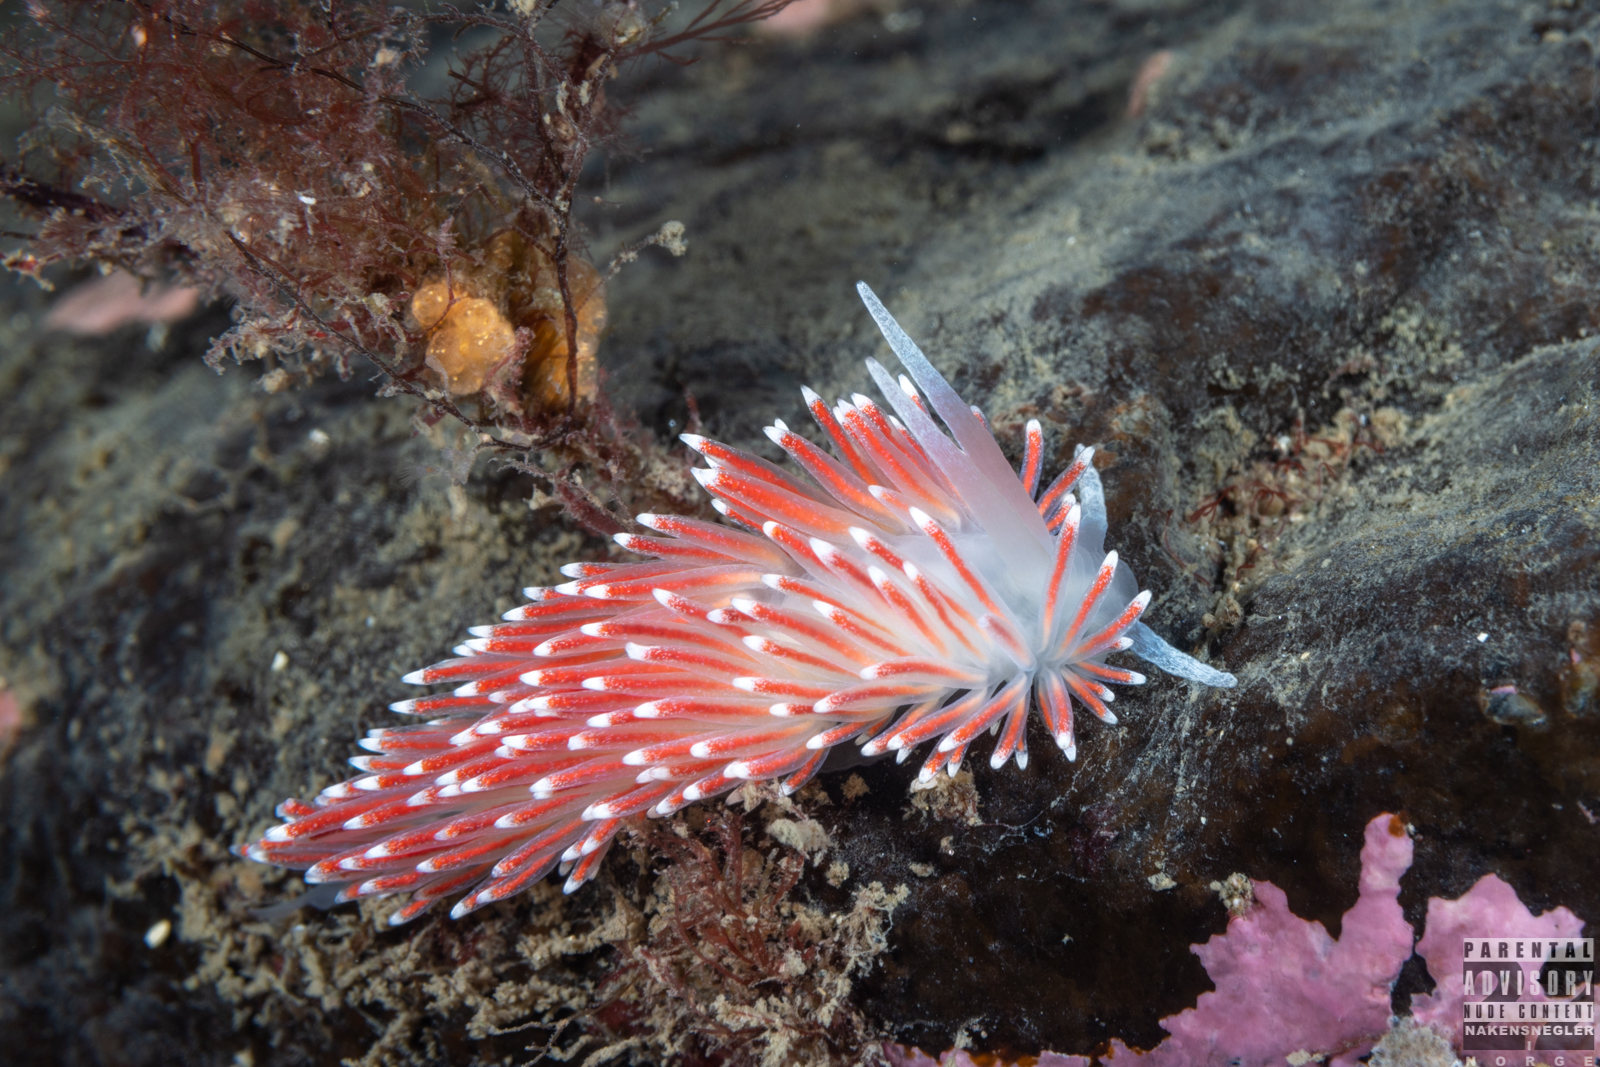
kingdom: Animalia
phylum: Mollusca
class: Gastropoda
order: Nudibranchia
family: Flabellinidae
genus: Carronella
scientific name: Carronella pellucida
